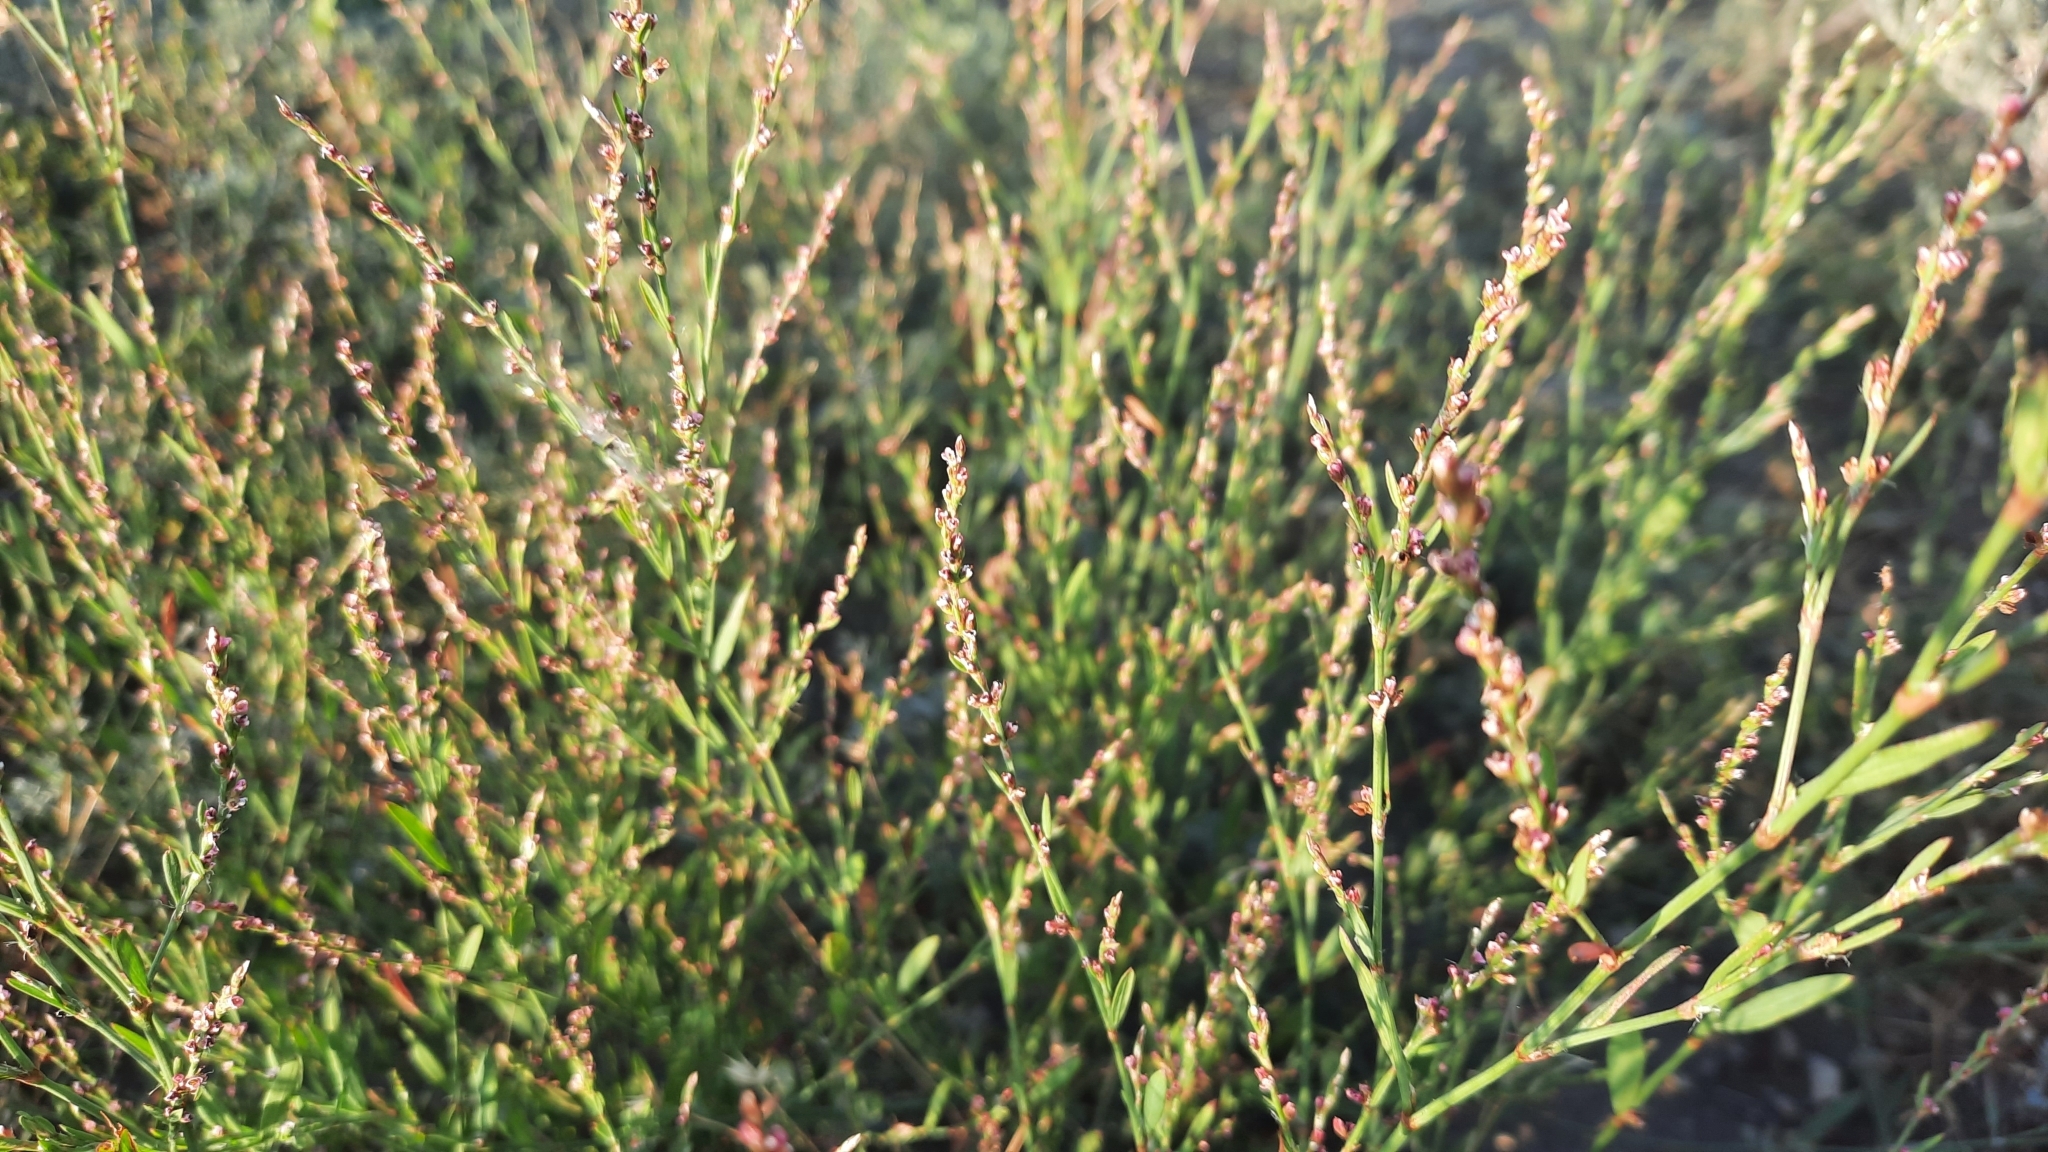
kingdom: Plantae
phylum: Tracheophyta
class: Magnoliopsida
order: Caryophyllales
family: Polygonaceae
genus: Polygonum
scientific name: Polygonum argyrocoleum
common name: Silversheath knotweed
